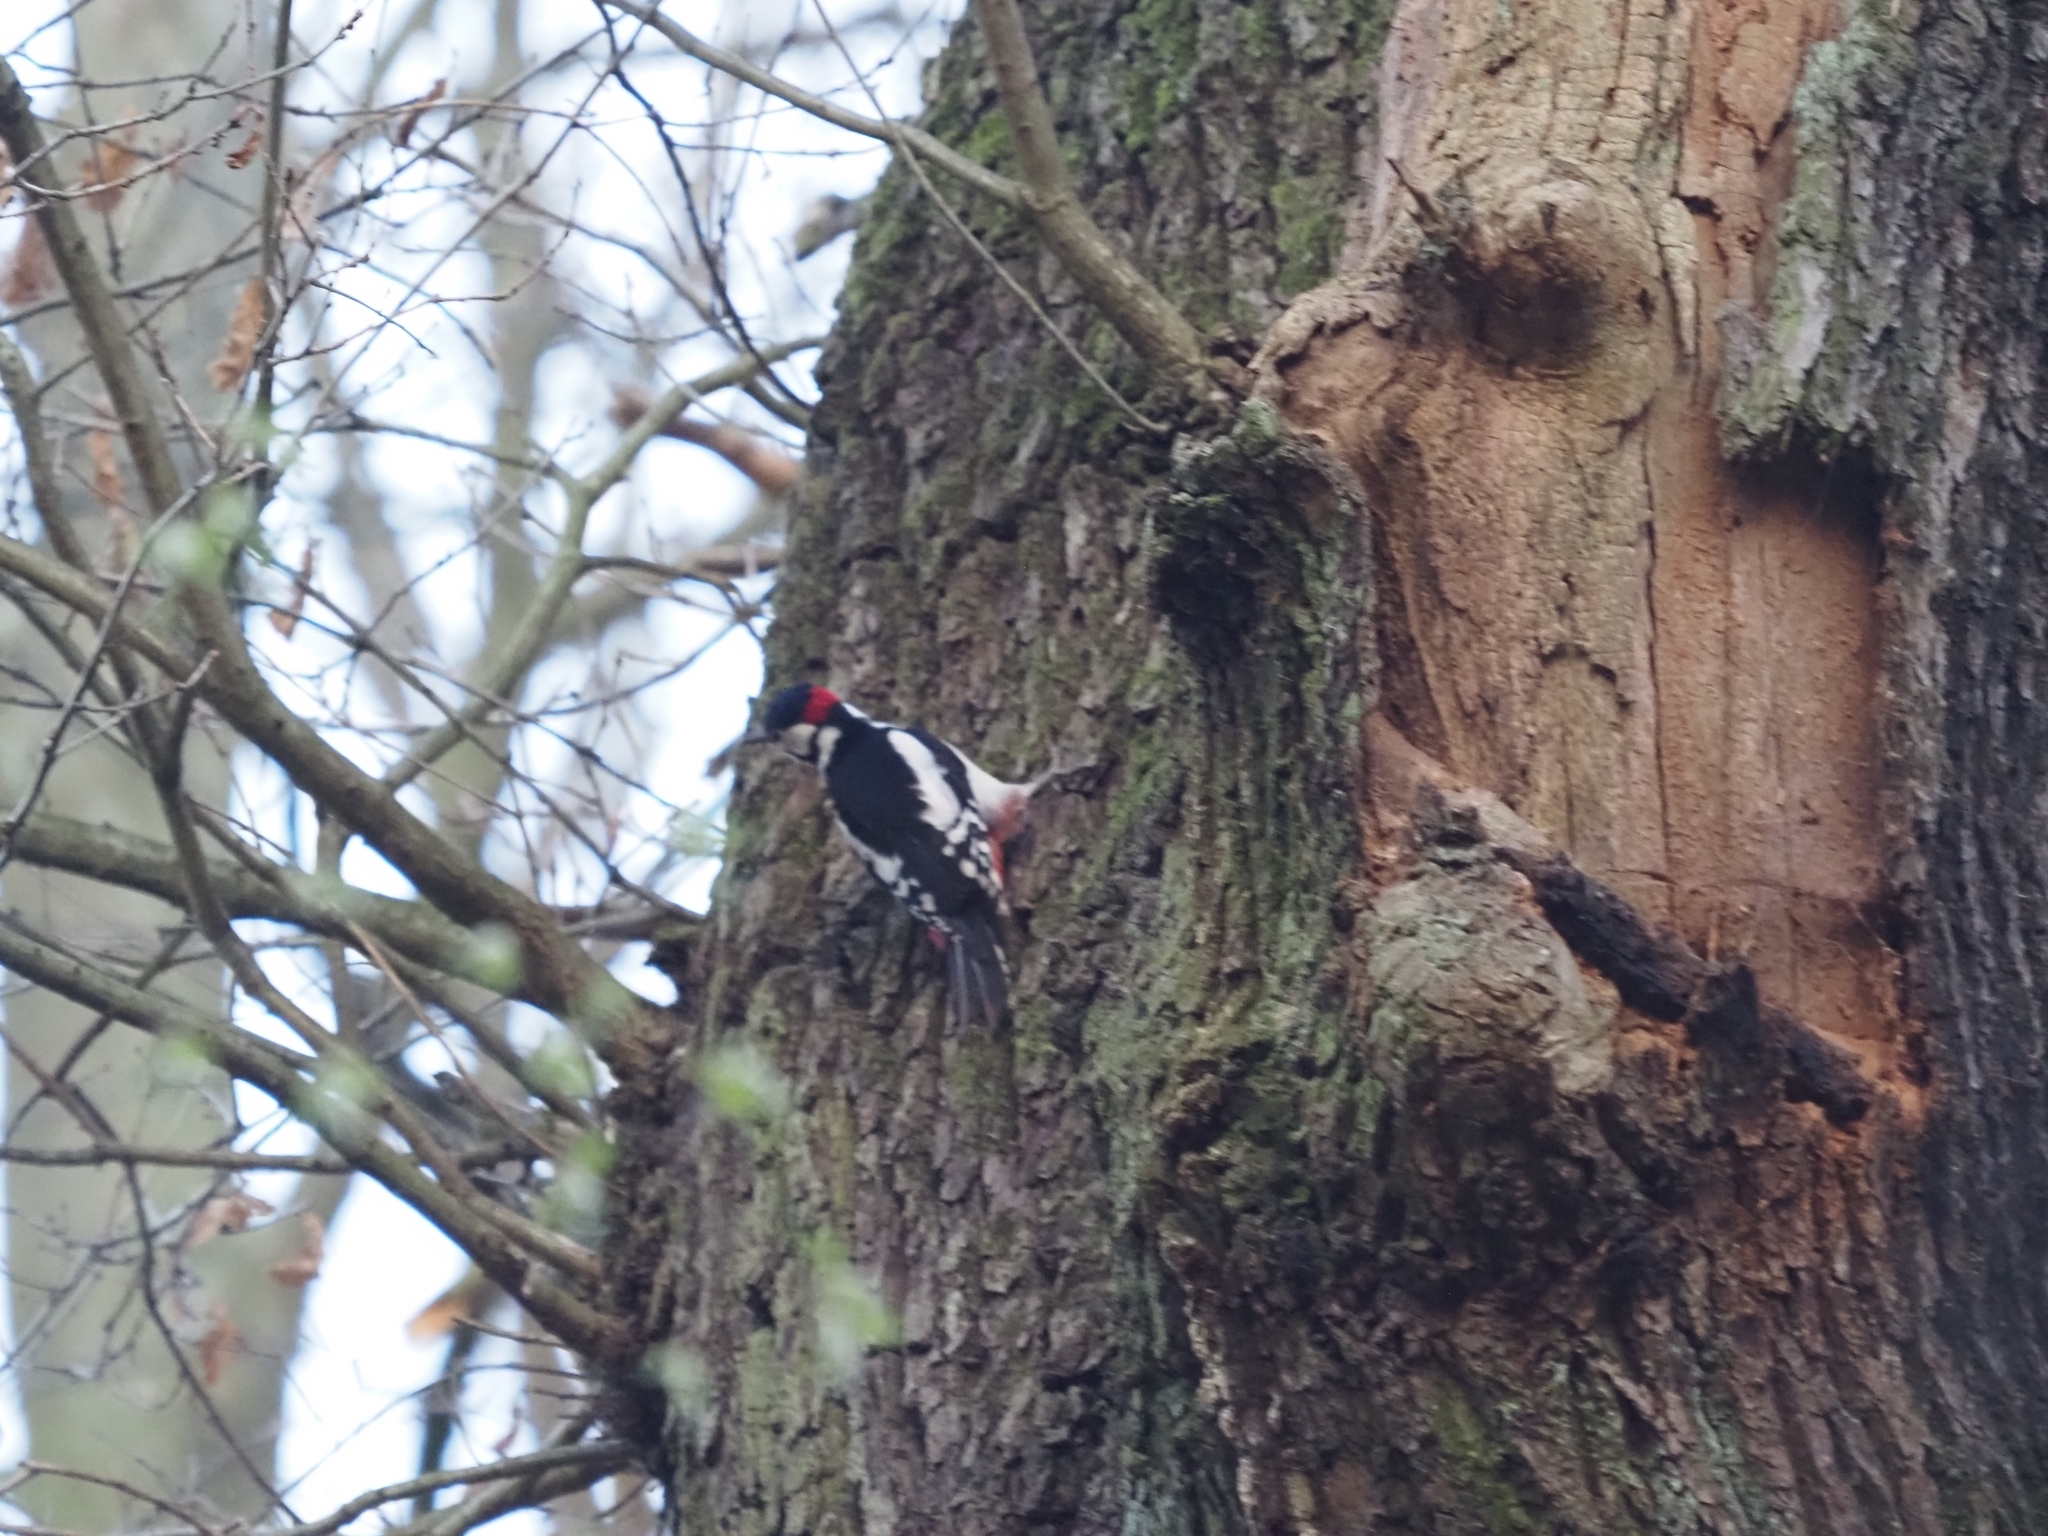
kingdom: Animalia
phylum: Chordata
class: Aves
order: Piciformes
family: Picidae
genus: Dendrocopos
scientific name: Dendrocopos major
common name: Great spotted woodpecker
